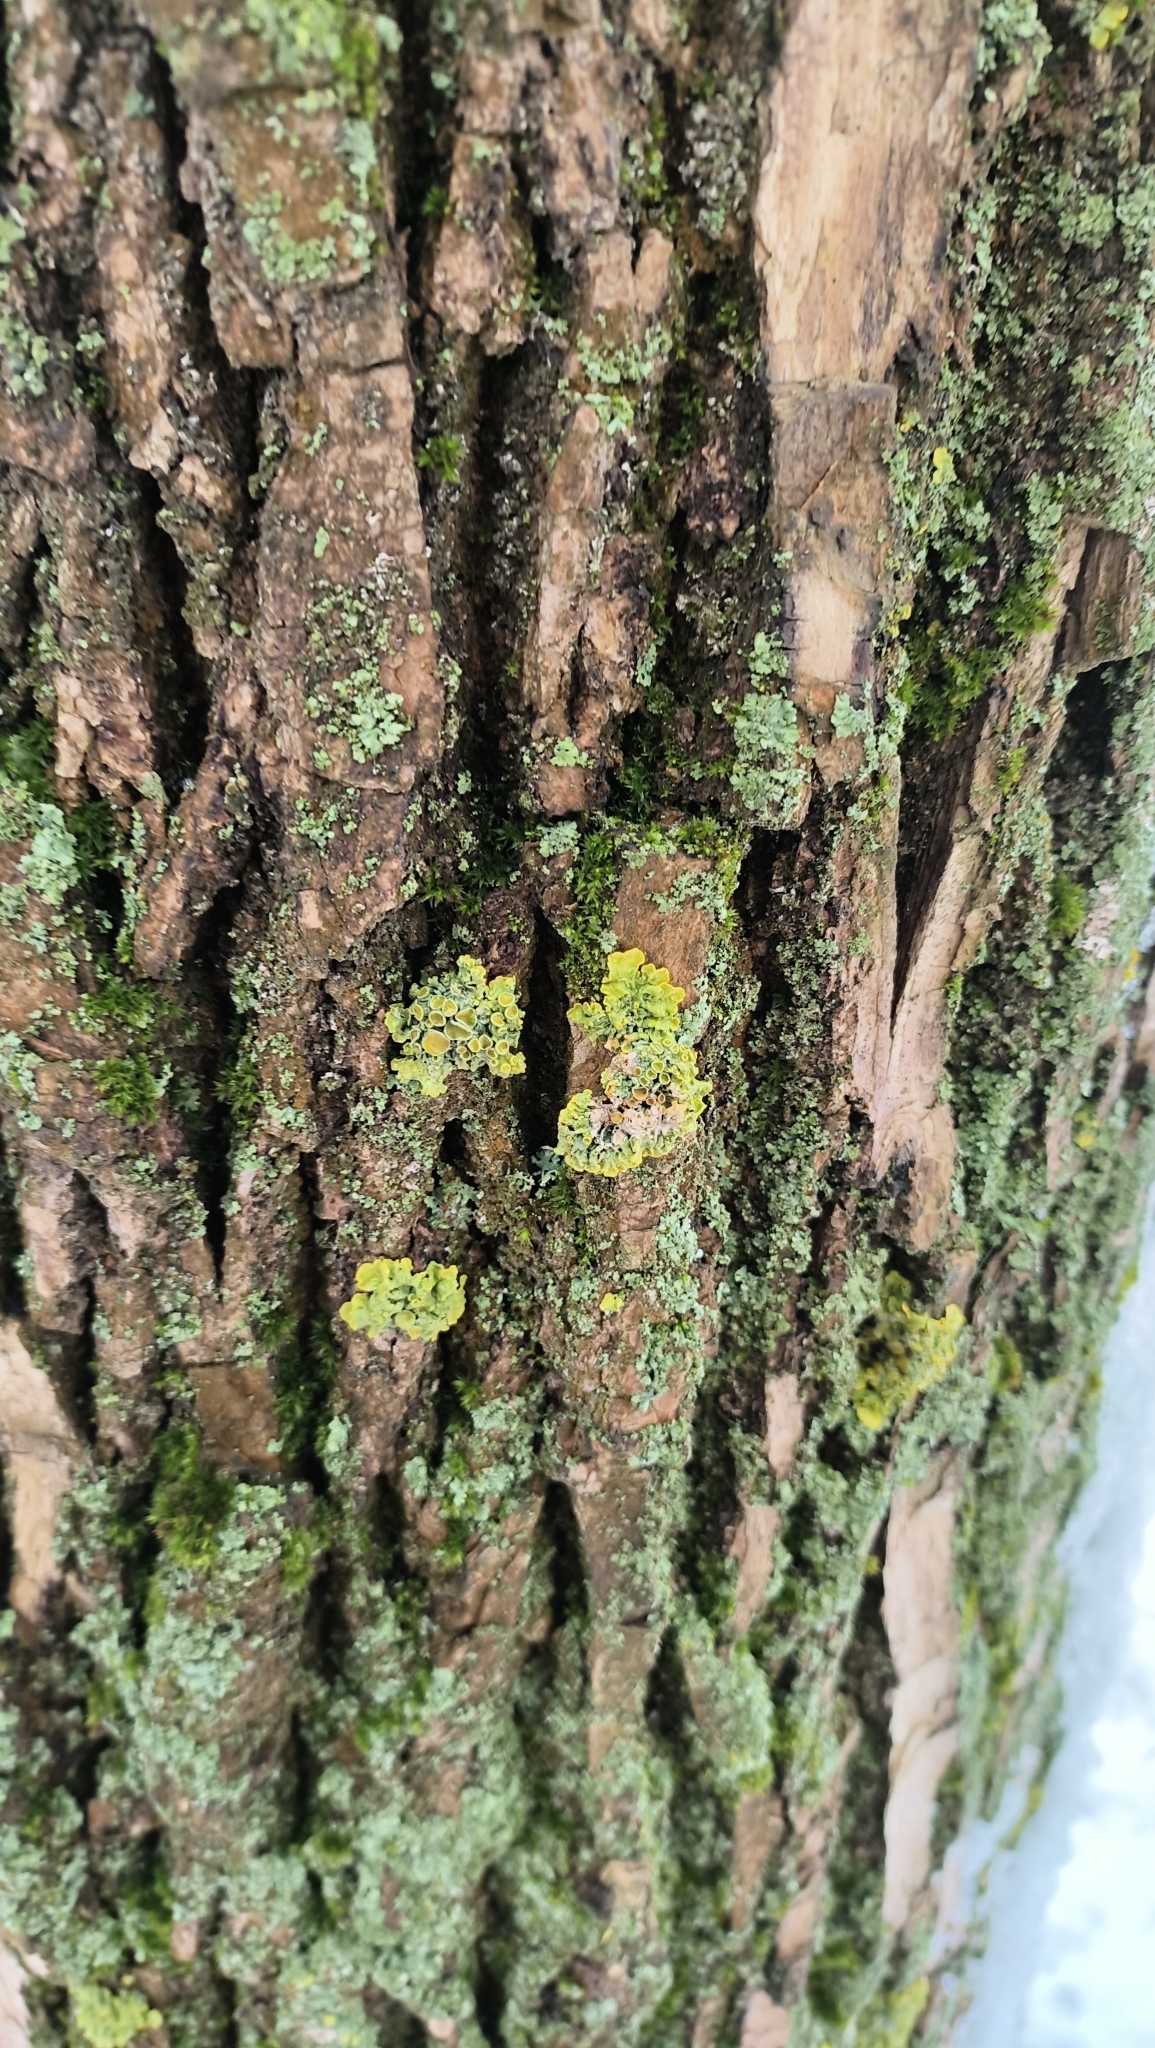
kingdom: Fungi
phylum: Ascomycota
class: Lecanoromycetes
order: Teloschistales
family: Teloschistaceae
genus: Xanthoria
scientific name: Xanthoria parietina
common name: Common orange lichen
